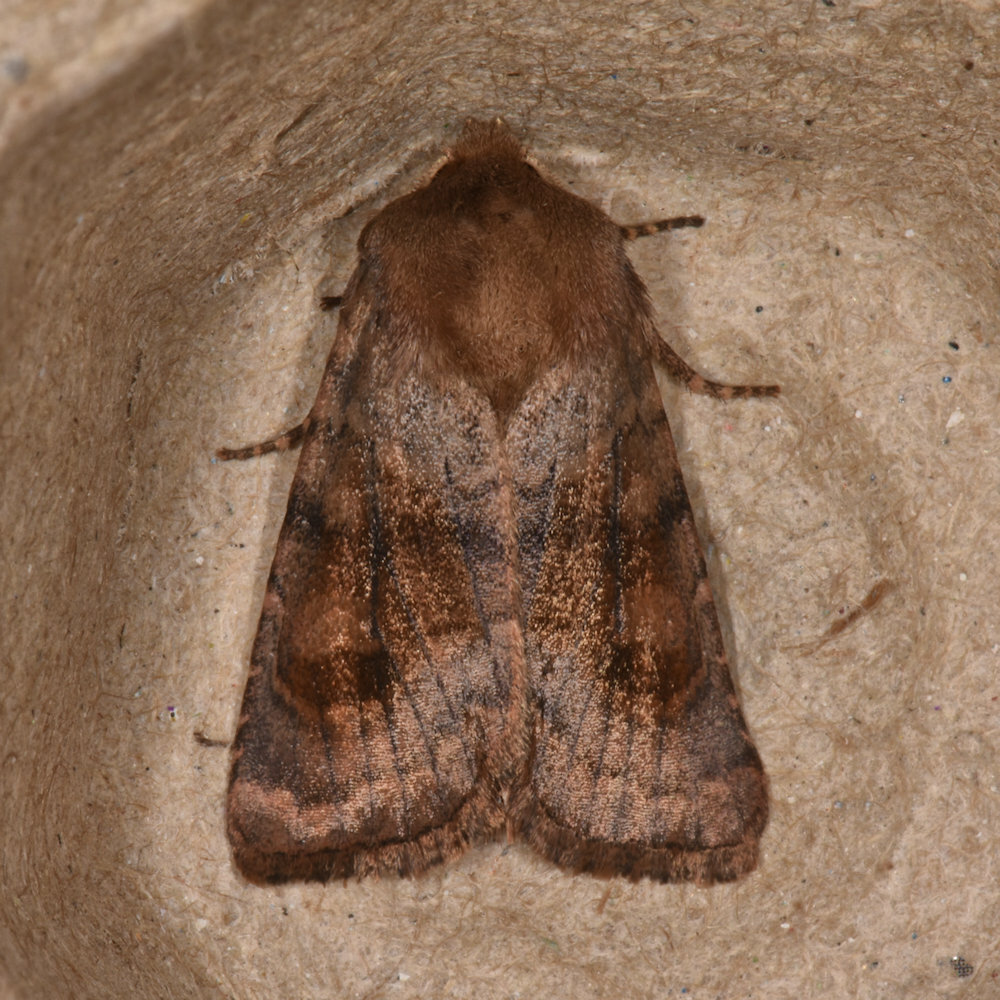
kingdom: Animalia
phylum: Arthropoda
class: Insecta
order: Lepidoptera
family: Noctuidae
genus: Nephelodes
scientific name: Nephelodes minians
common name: Bronzed cutworm
